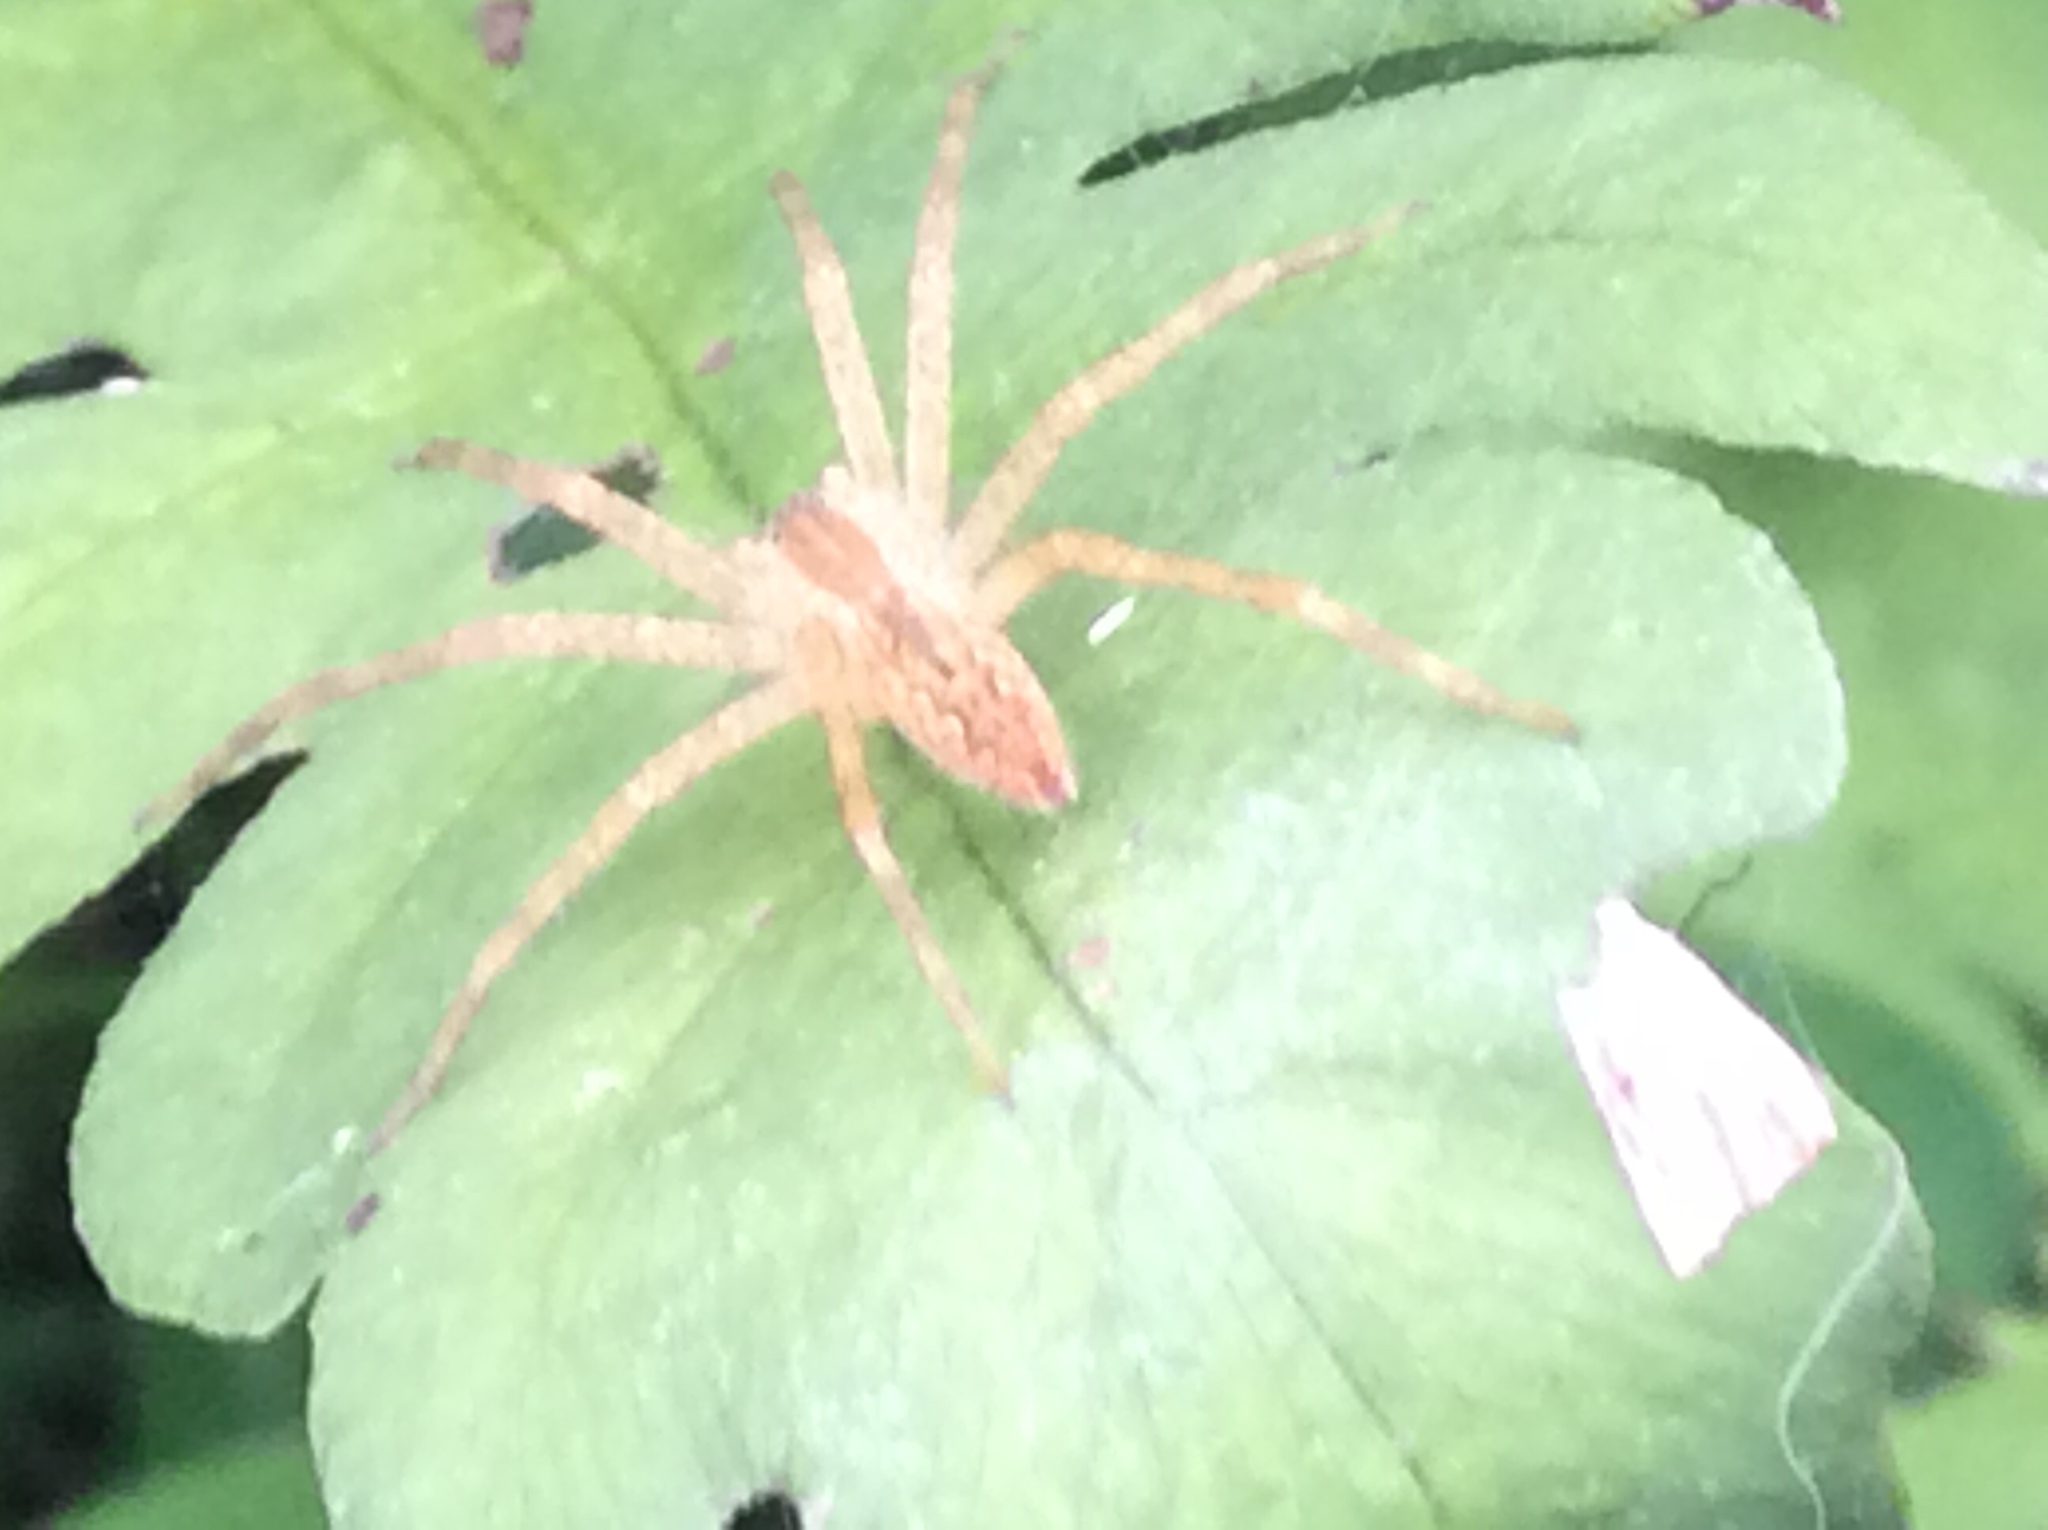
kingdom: Animalia
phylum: Arthropoda
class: Arachnida
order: Araneae
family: Pisauridae
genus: Pisaurina
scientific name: Pisaurina mira
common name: American nursery web spider
